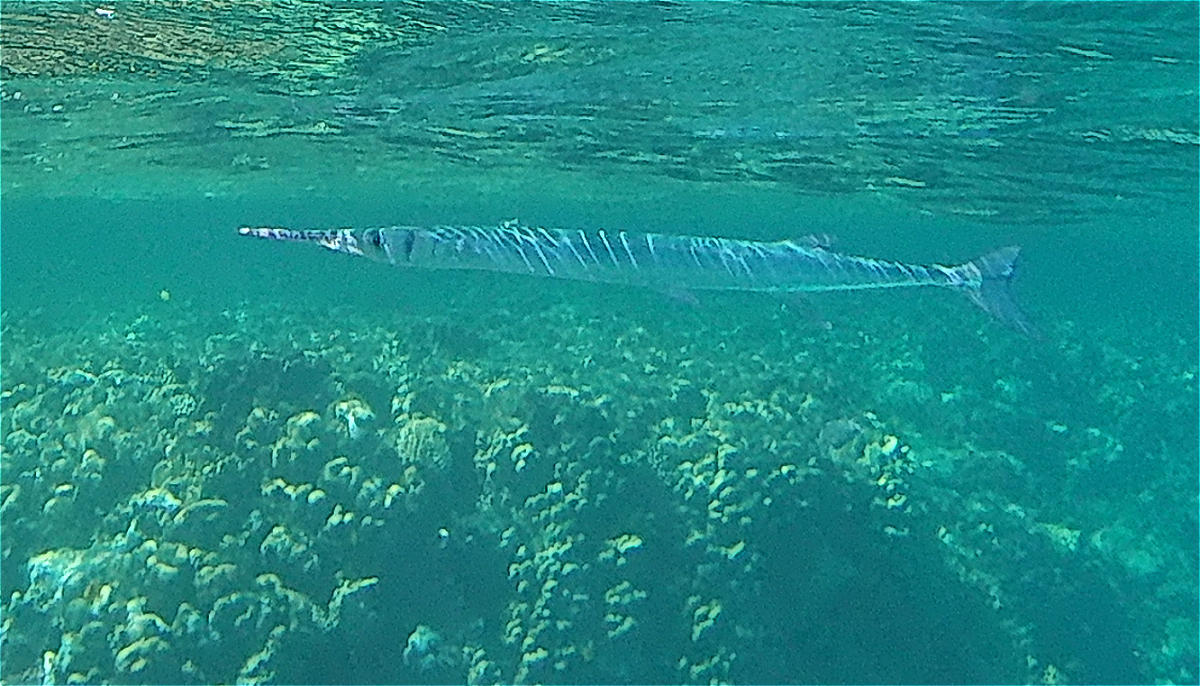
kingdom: Animalia
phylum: Chordata
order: Beloniformes
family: Belonidae
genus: Tylosurus
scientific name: Tylosurus choram
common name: Red sea houndfish
